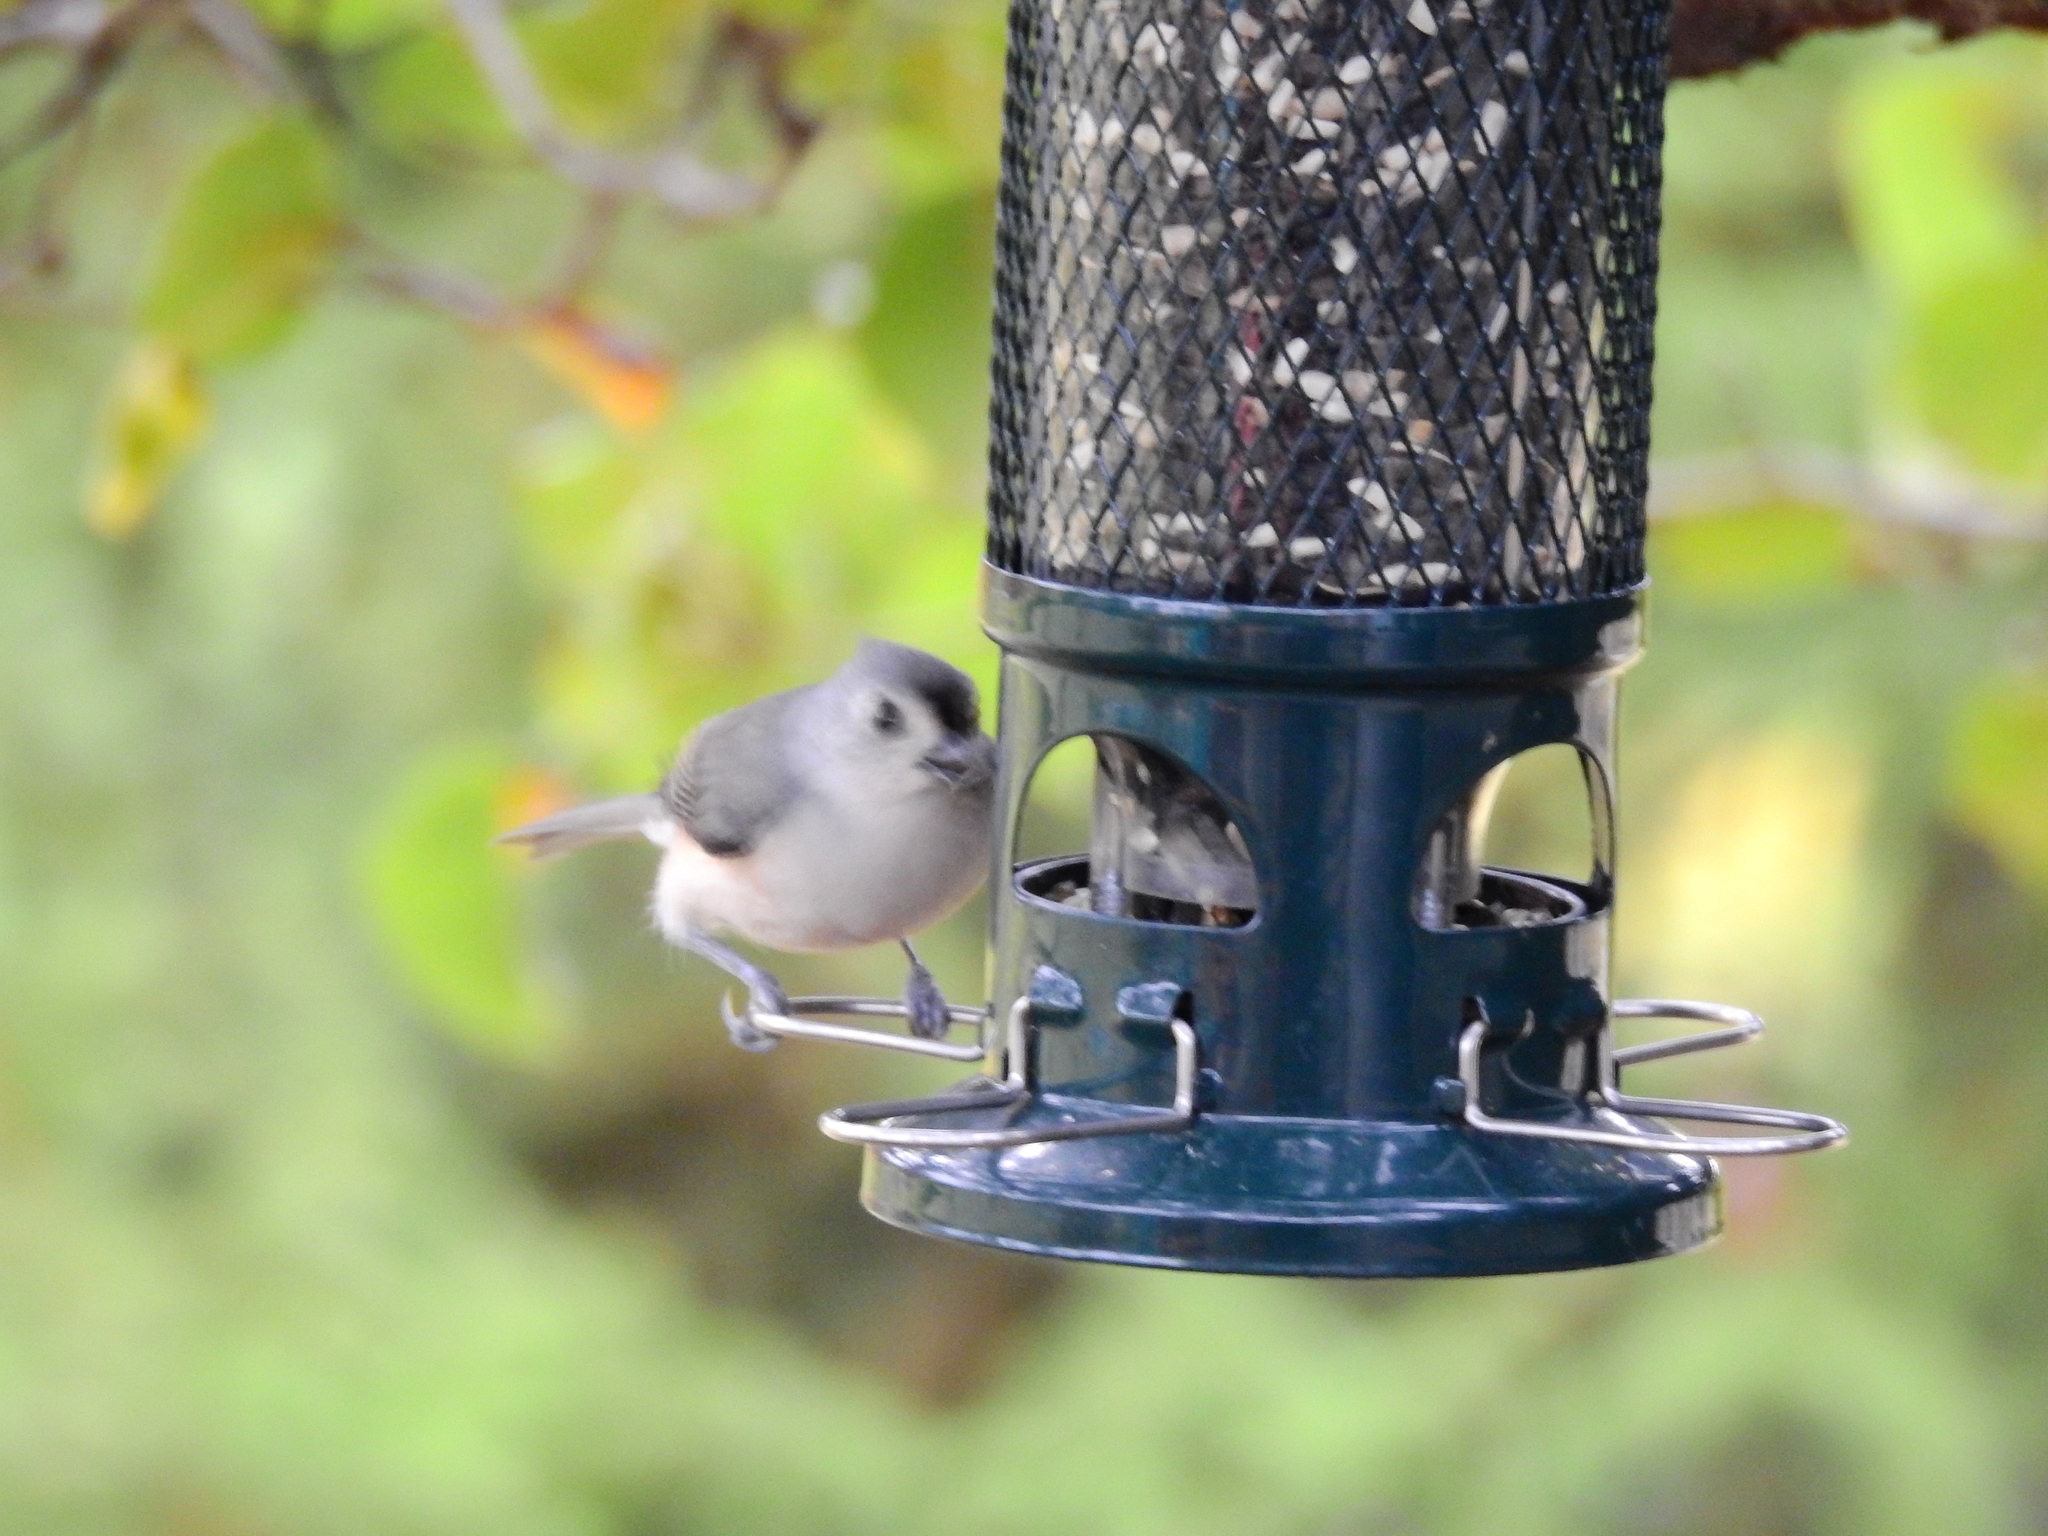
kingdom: Animalia
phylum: Chordata
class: Aves
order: Passeriformes
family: Paridae
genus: Baeolophus
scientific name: Baeolophus bicolor
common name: Tufted titmouse
